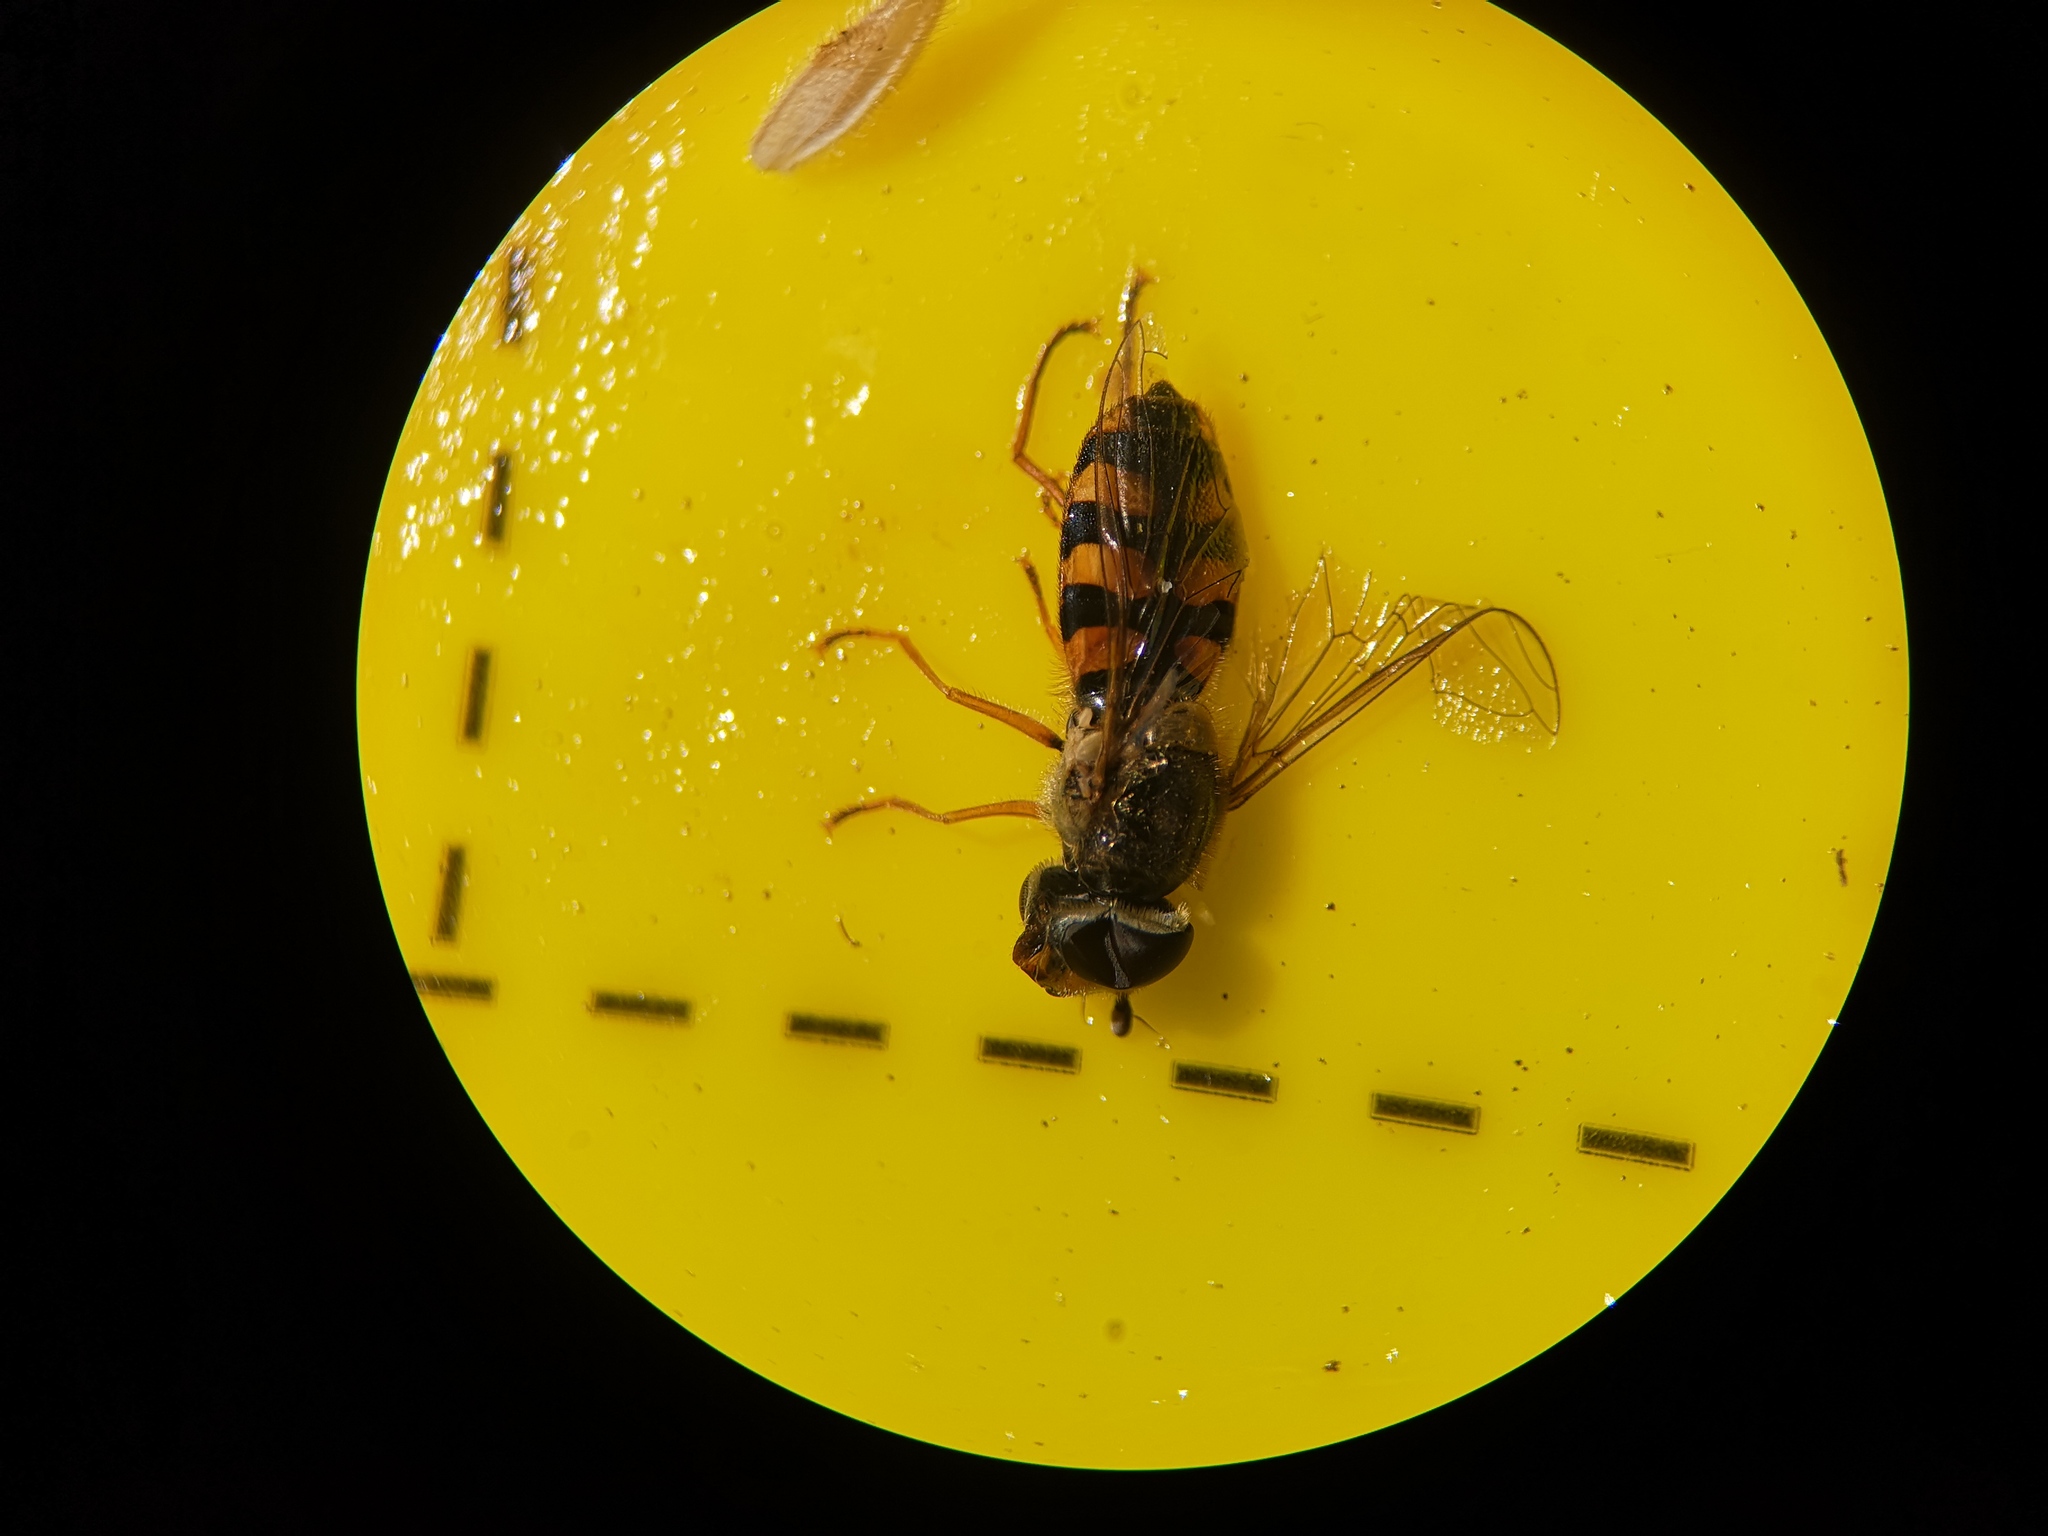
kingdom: Animalia
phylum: Arthropoda
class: Insecta
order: Diptera
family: Syrphidae
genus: Eupeodes
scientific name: Eupeodes corollae
